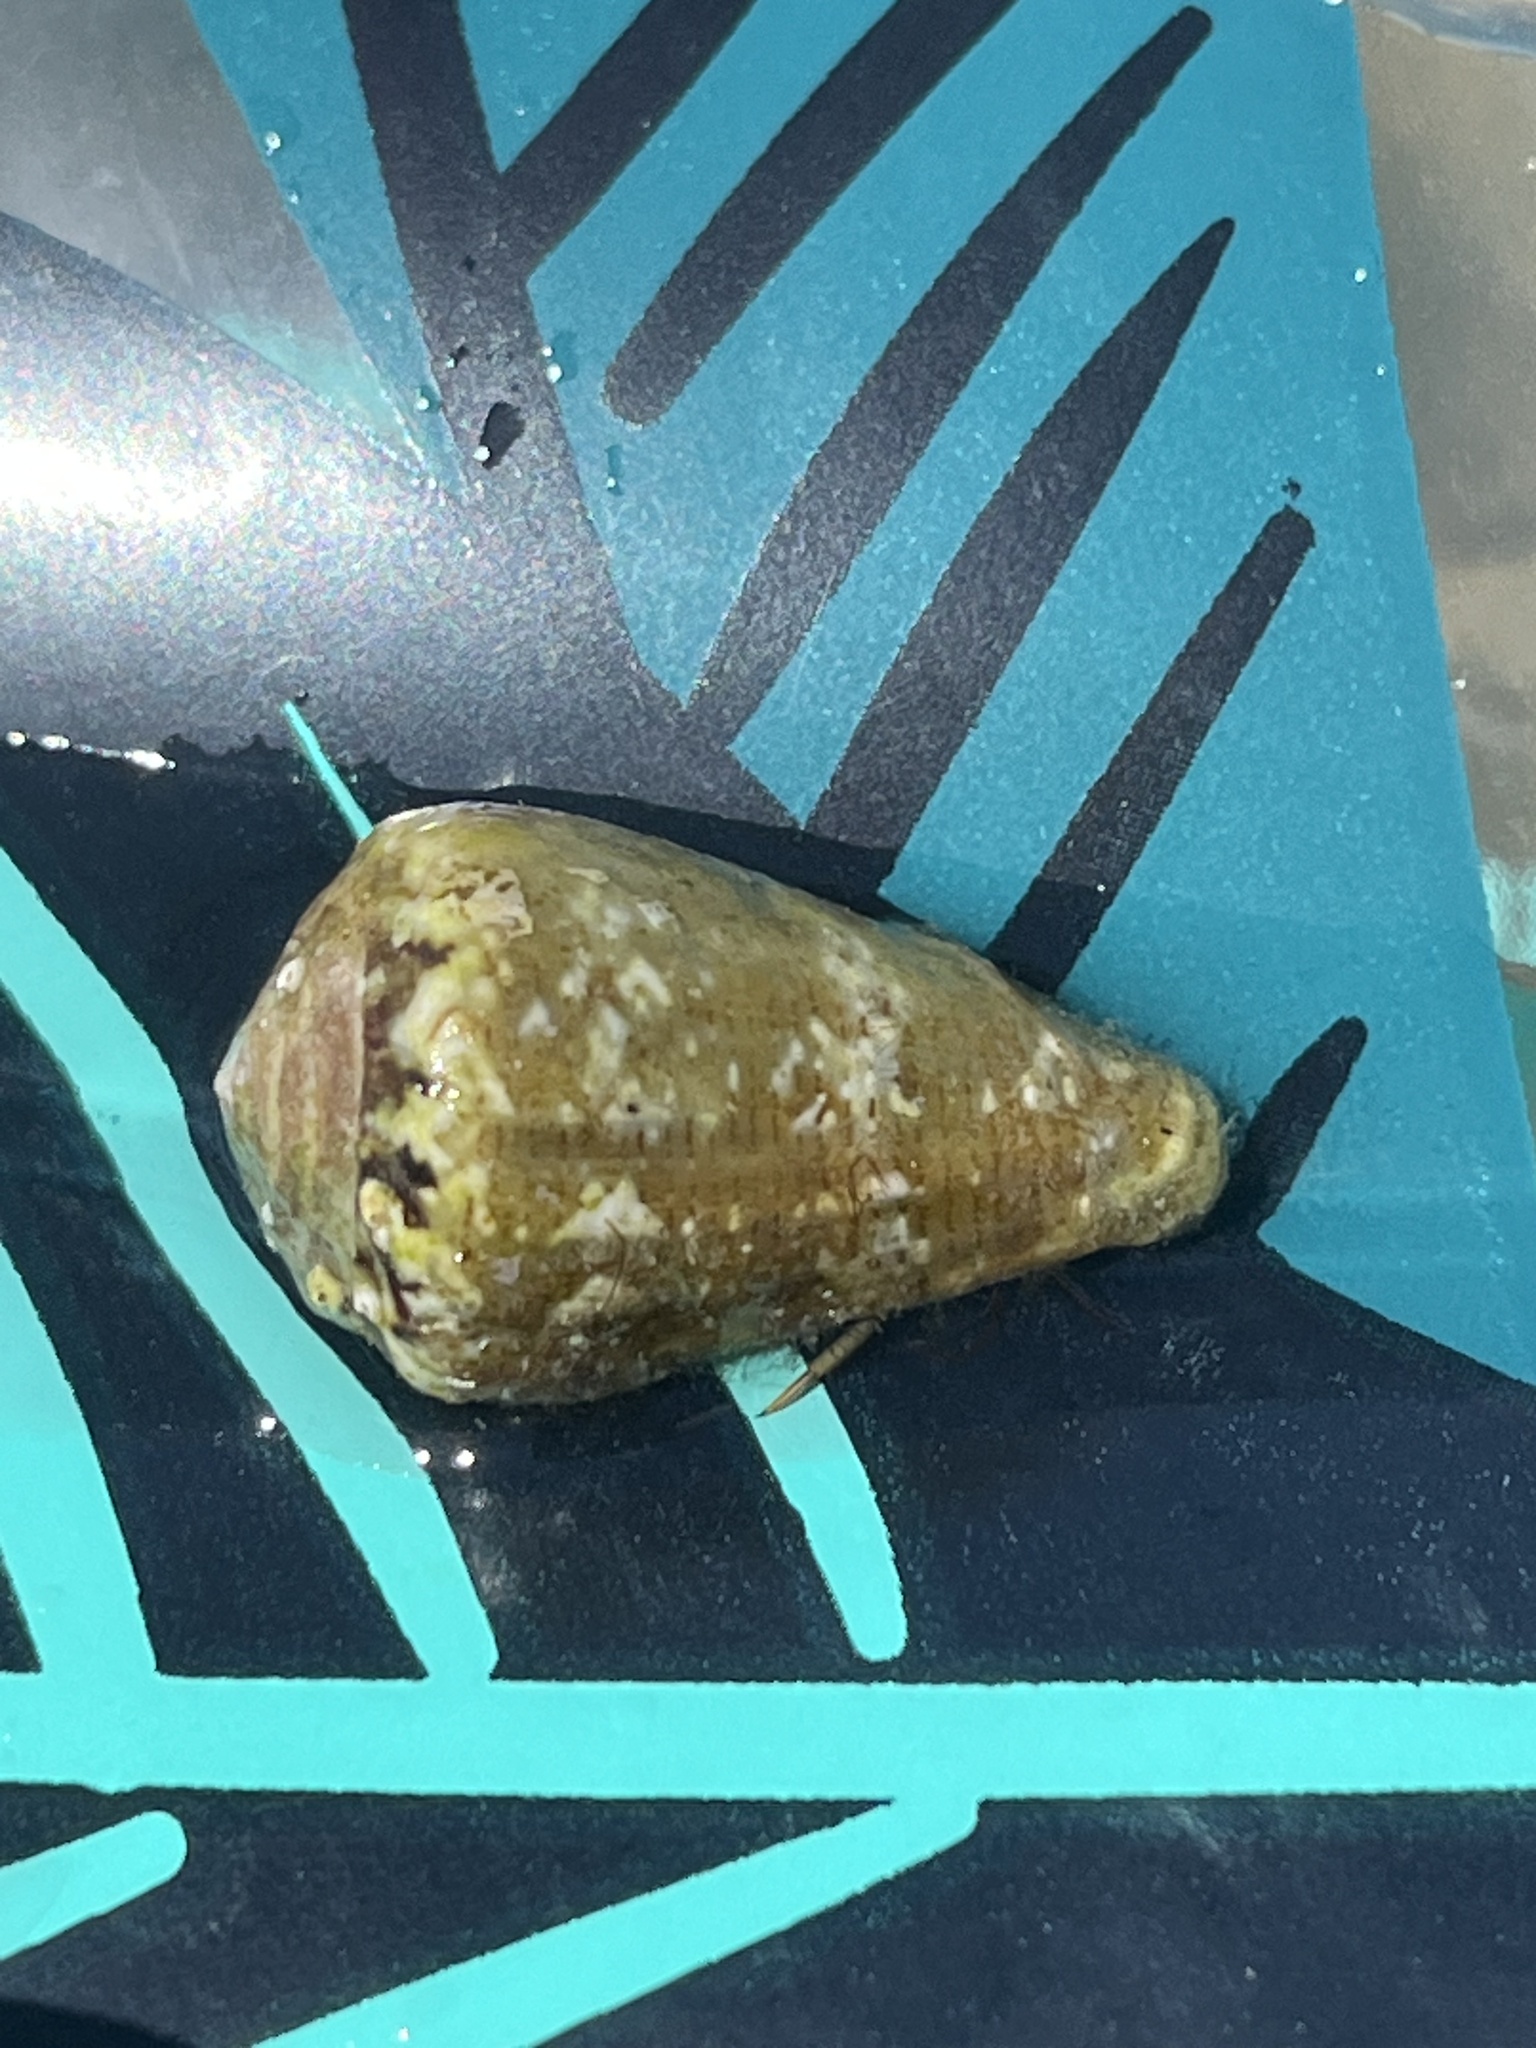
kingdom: Animalia
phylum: Mollusca
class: Gastropoda
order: Neogastropoda
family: Conidae
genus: Conus
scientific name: Conus ventricosus
